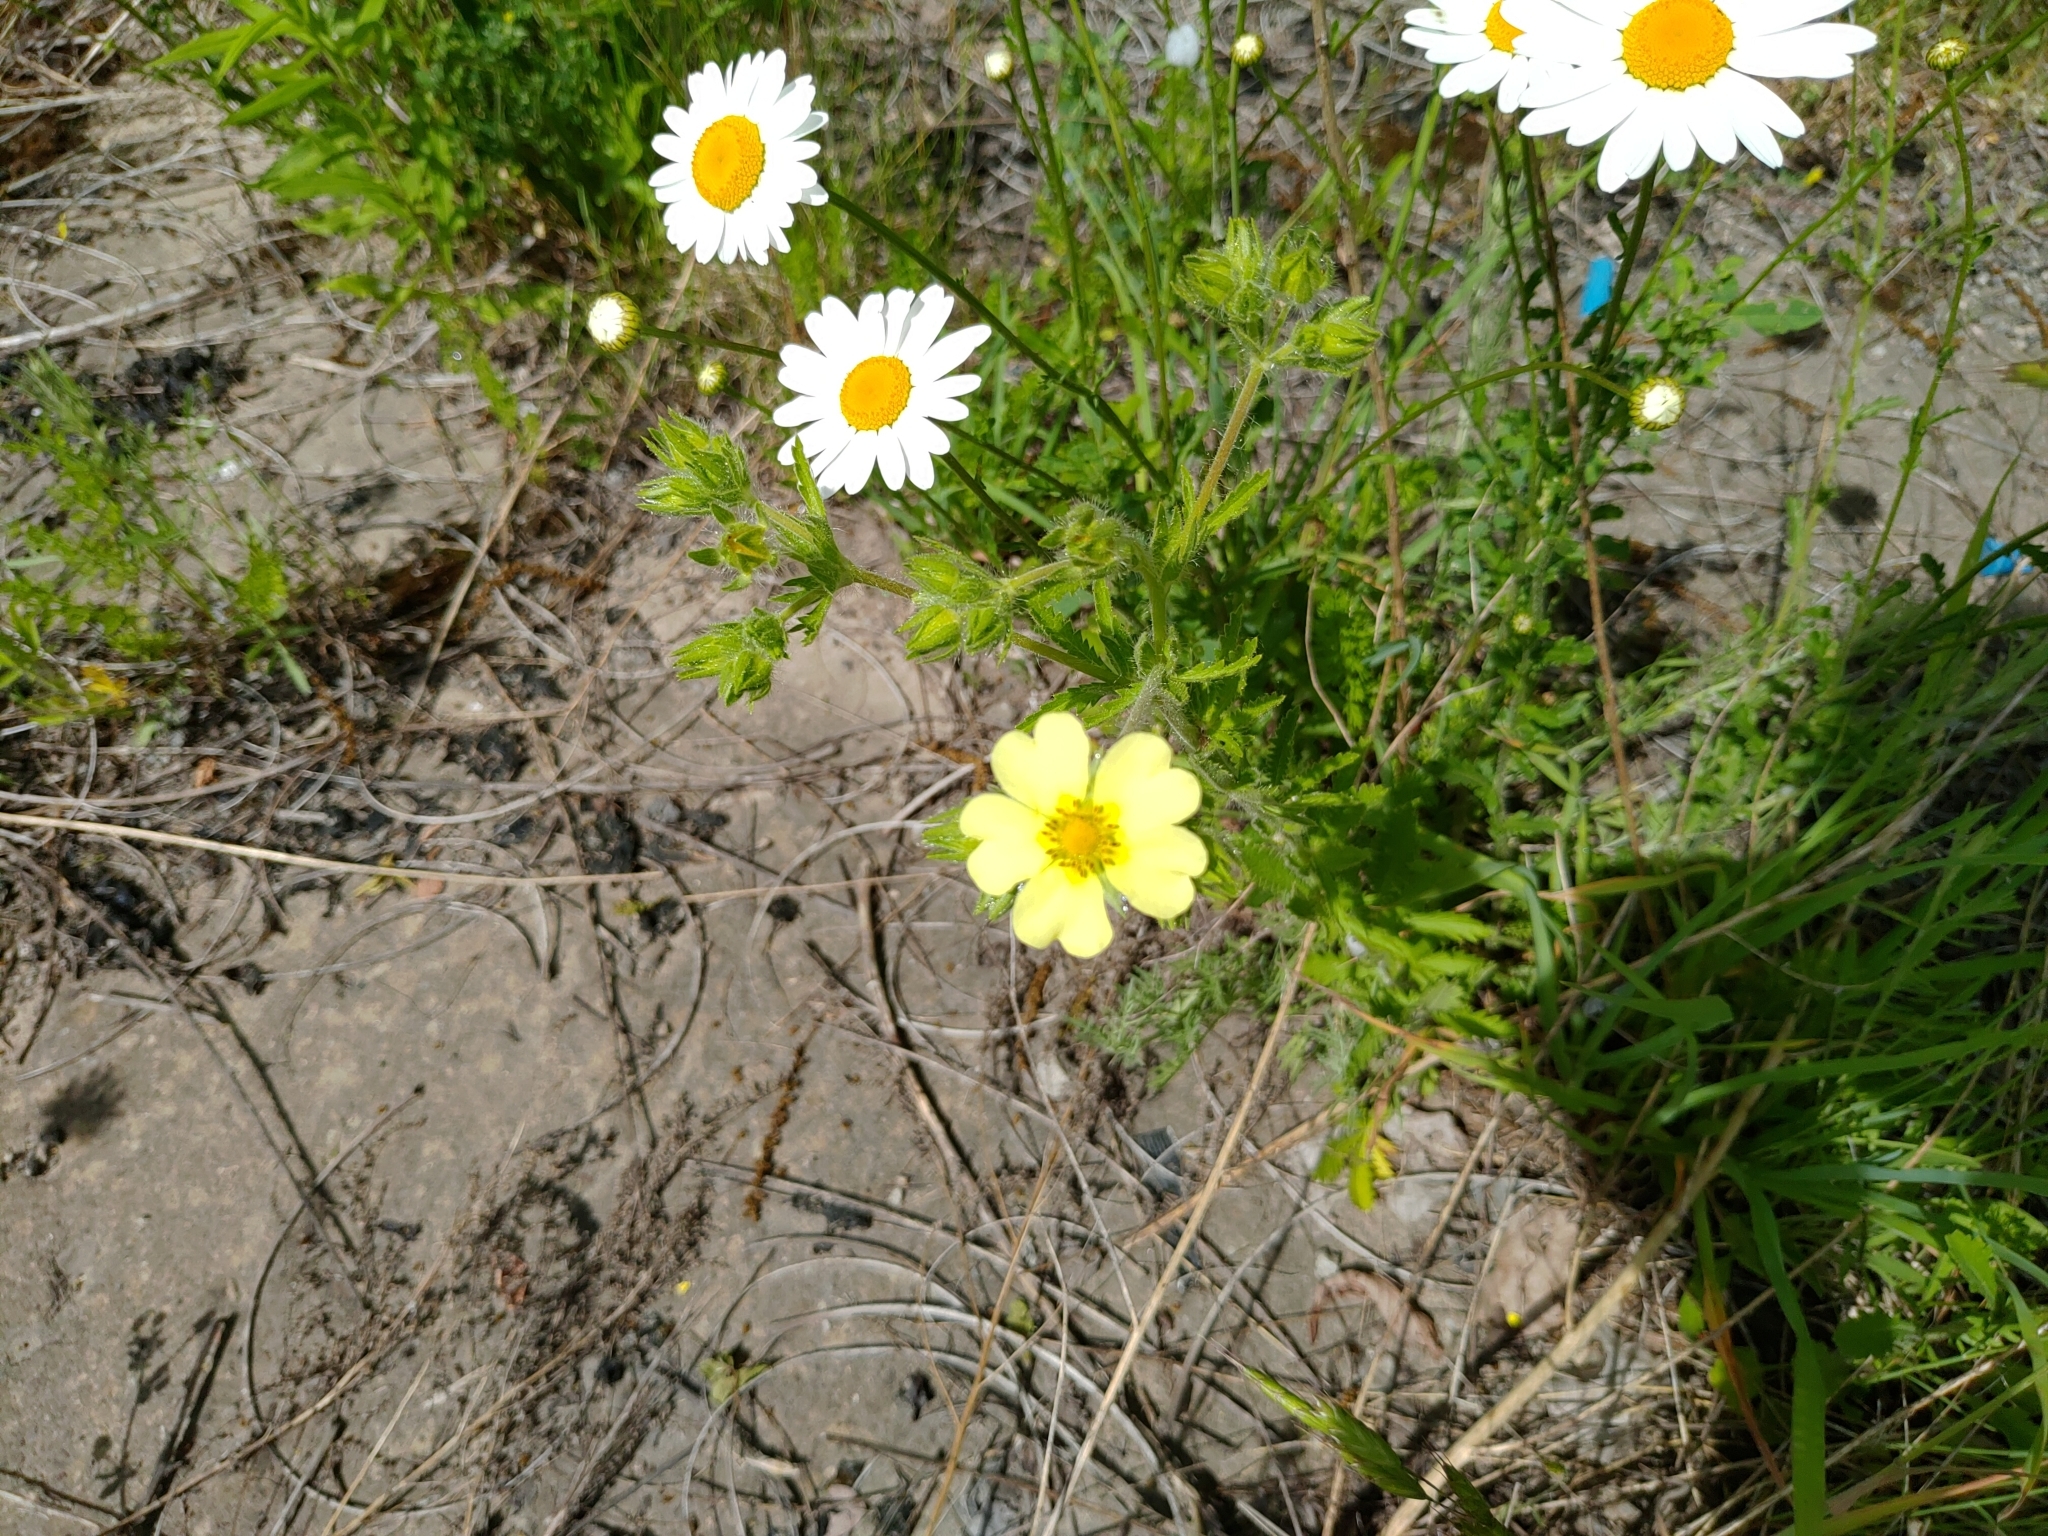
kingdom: Plantae
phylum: Tracheophyta
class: Magnoliopsida
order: Rosales
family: Rosaceae
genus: Potentilla
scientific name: Potentilla recta
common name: Sulphur cinquefoil
